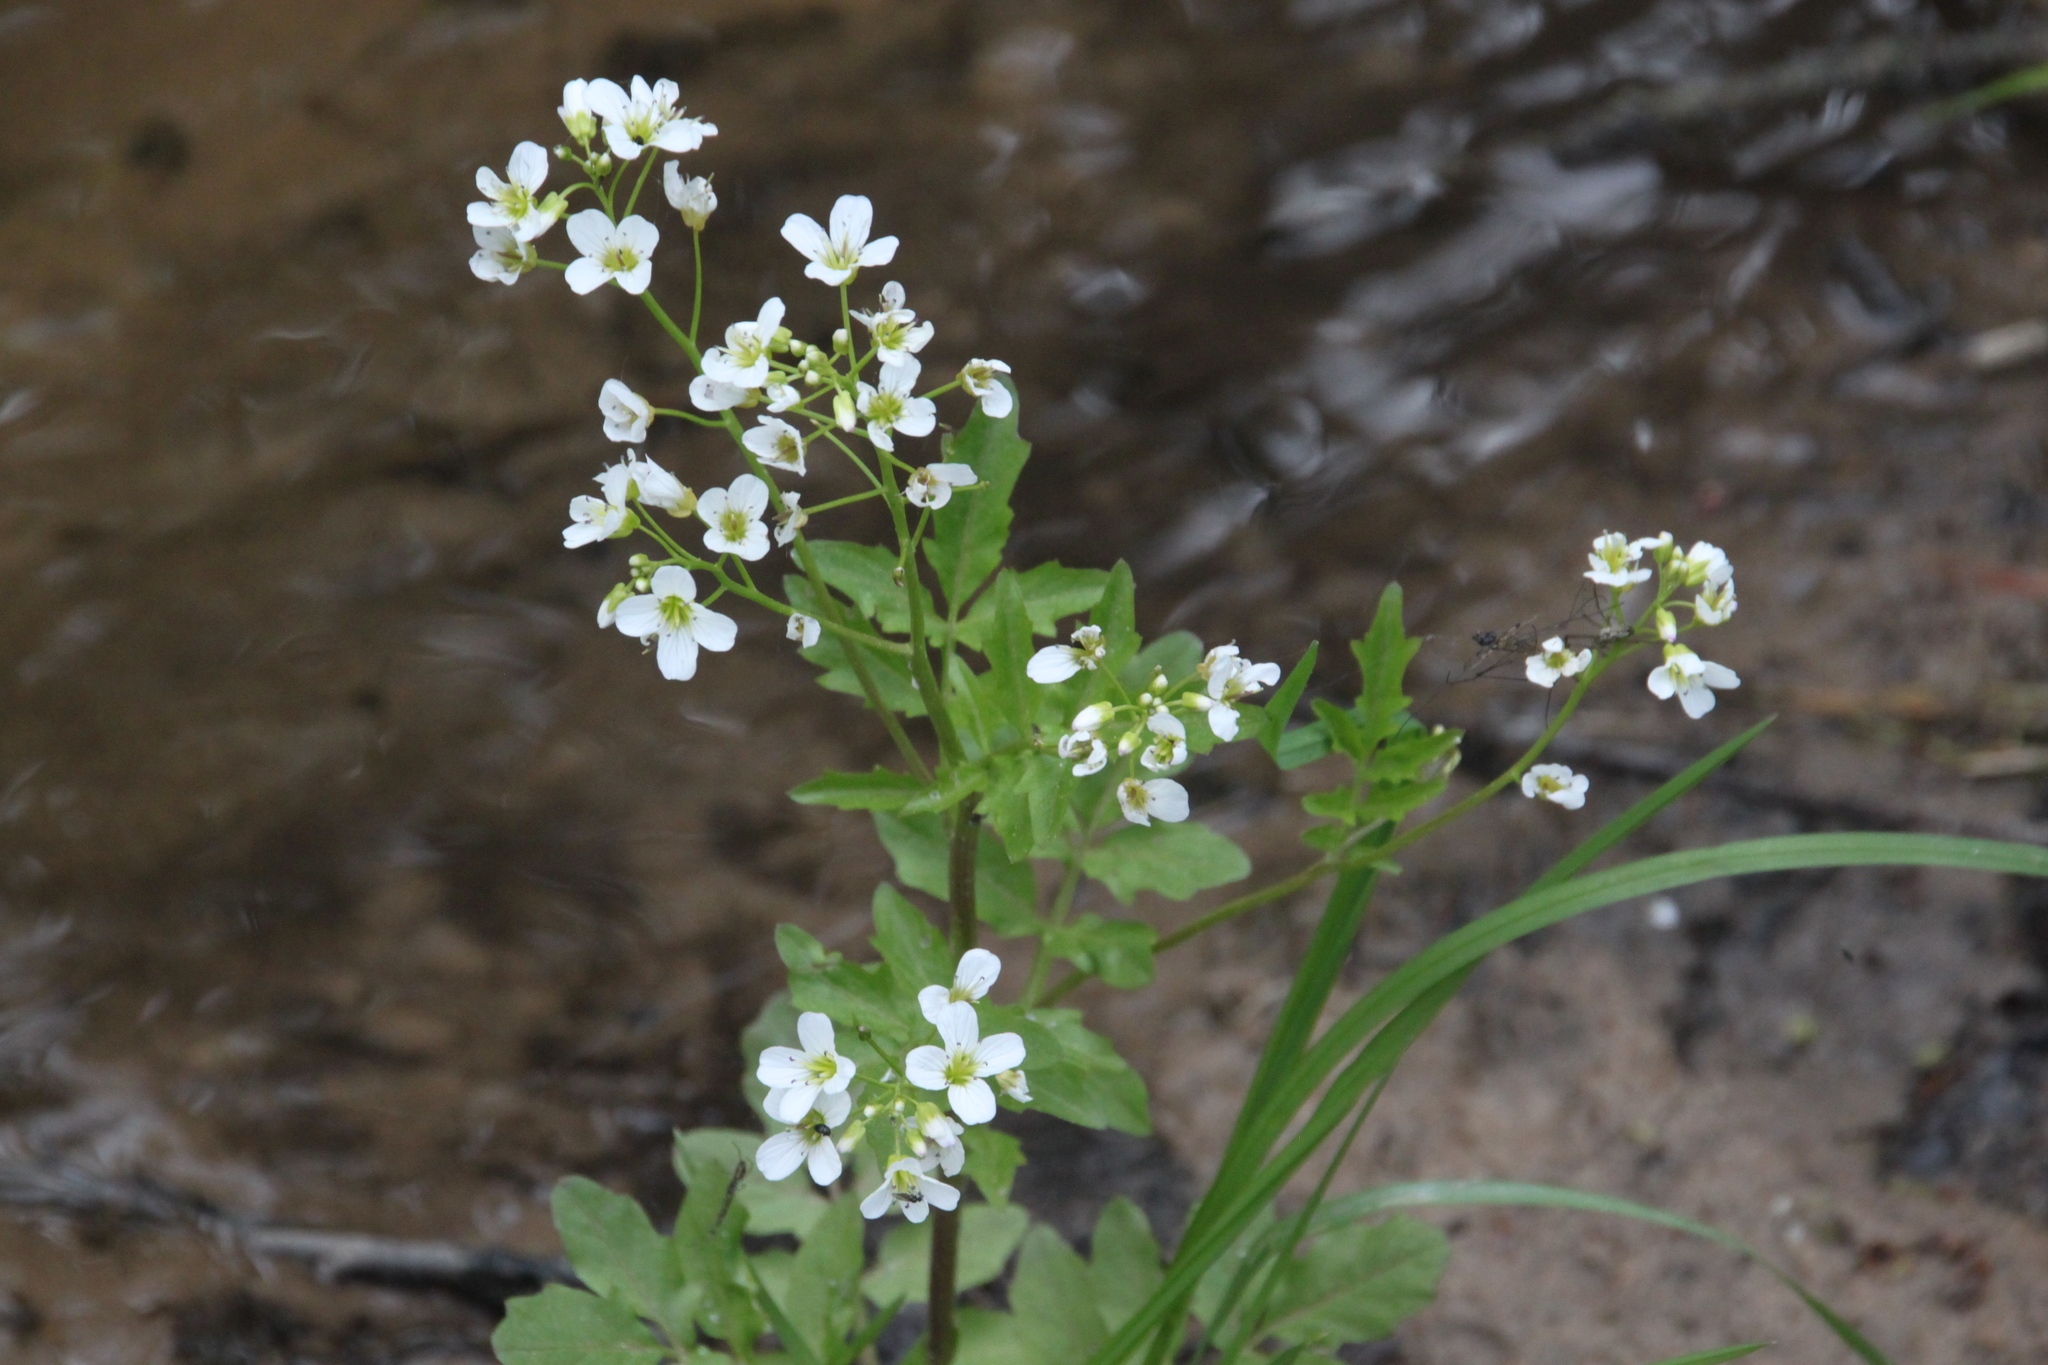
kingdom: Plantae
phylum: Tracheophyta
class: Magnoliopsida
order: Brassicales
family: Brassicaceae
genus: Cardamine
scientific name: Cardamine amara
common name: Large bitter-cress
